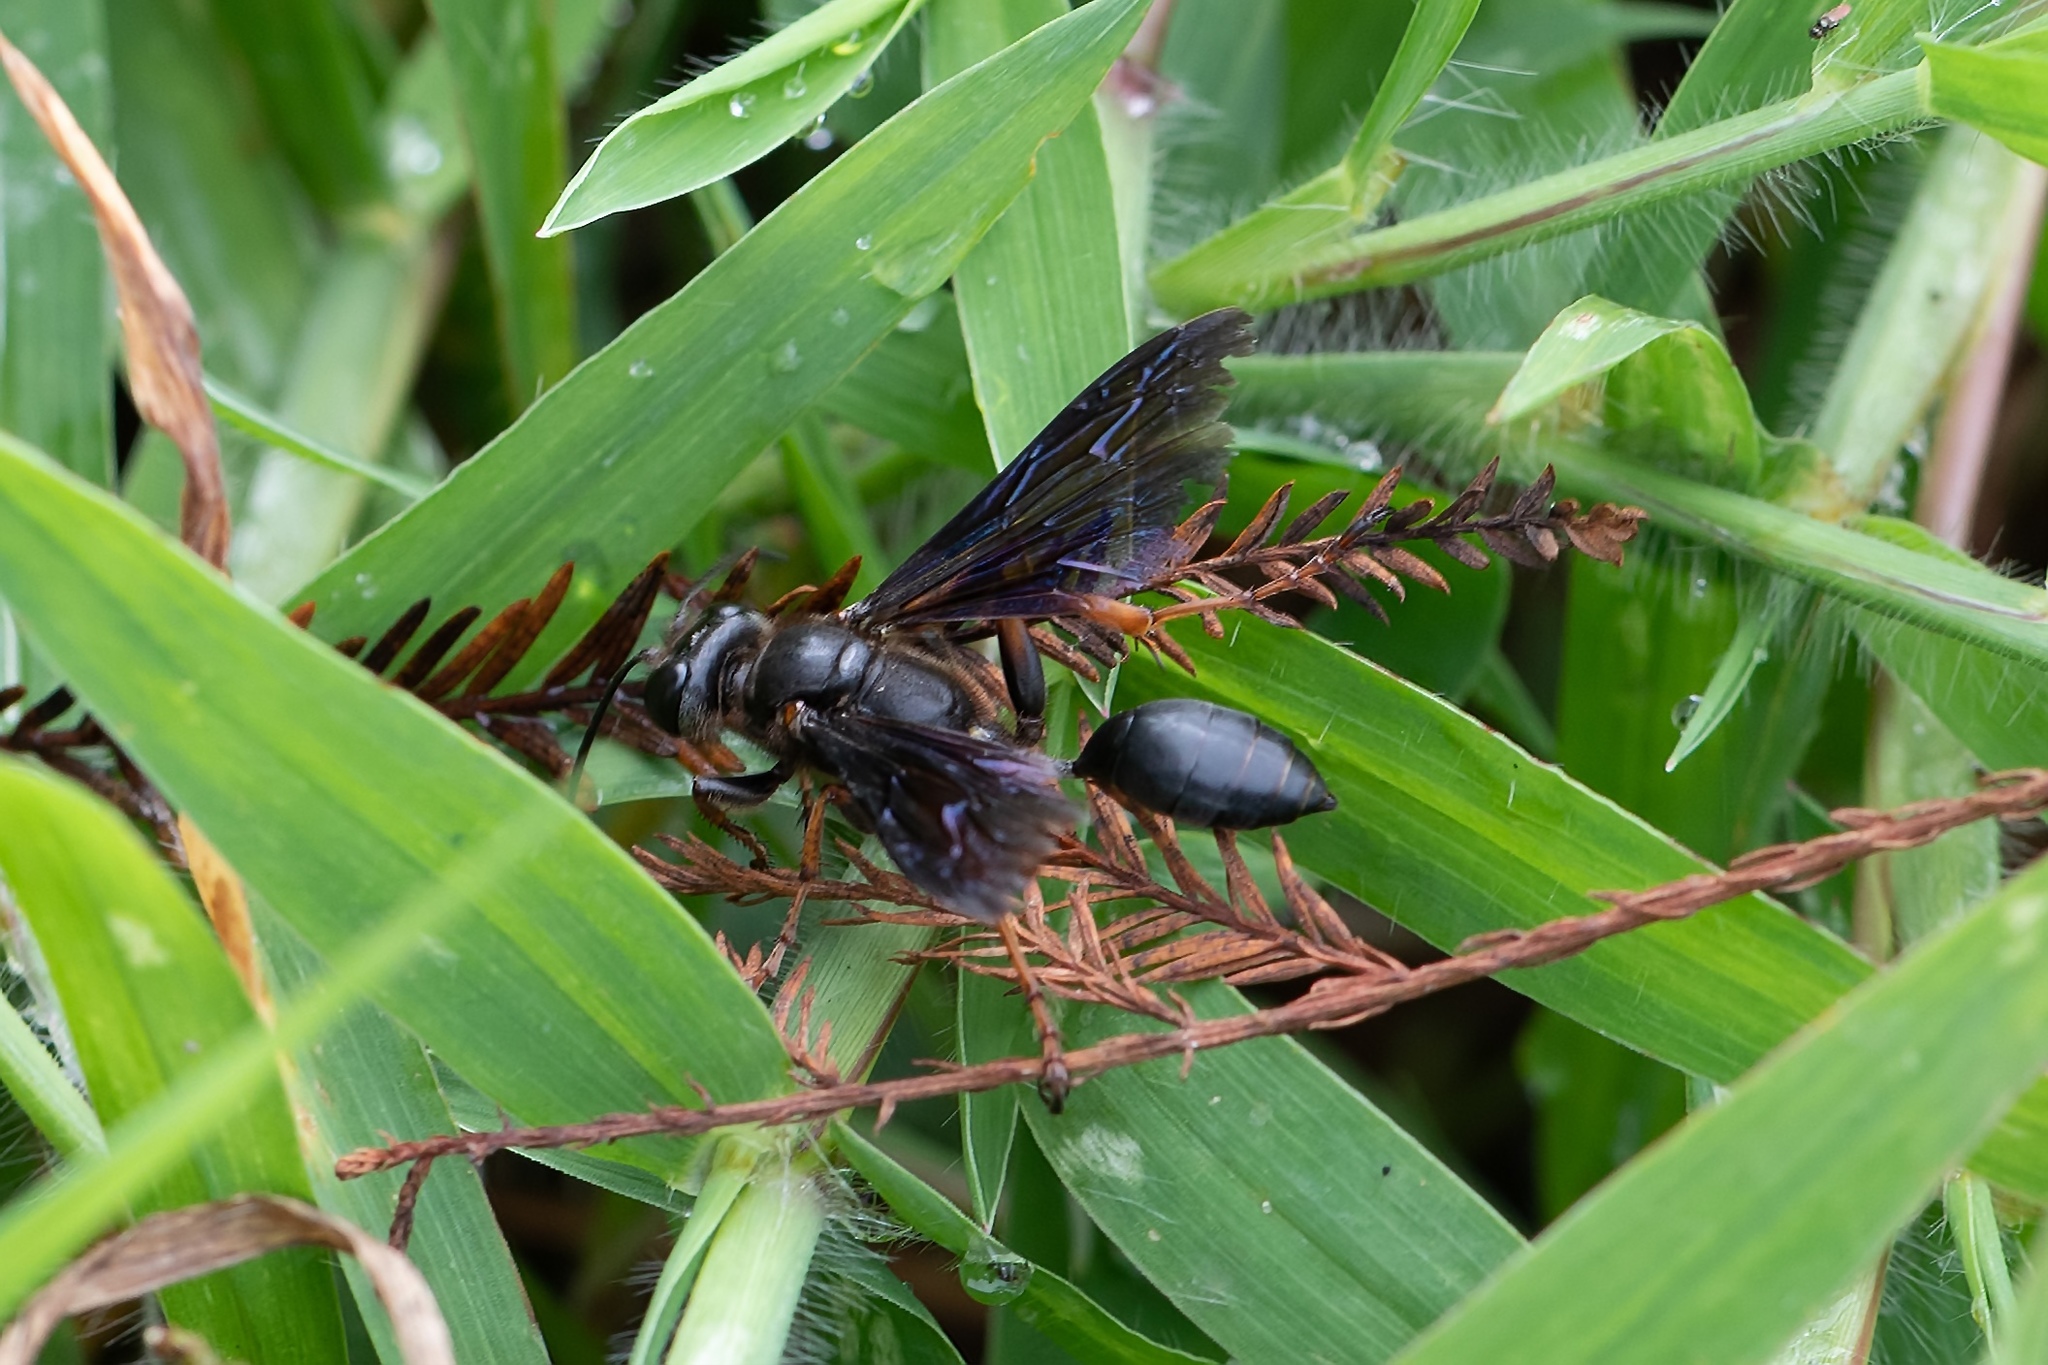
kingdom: Animalia
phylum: Arthropoda
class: Insecta
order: Hymenoptera
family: Sphecidae
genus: Isodontia
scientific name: Isodontia auripes
